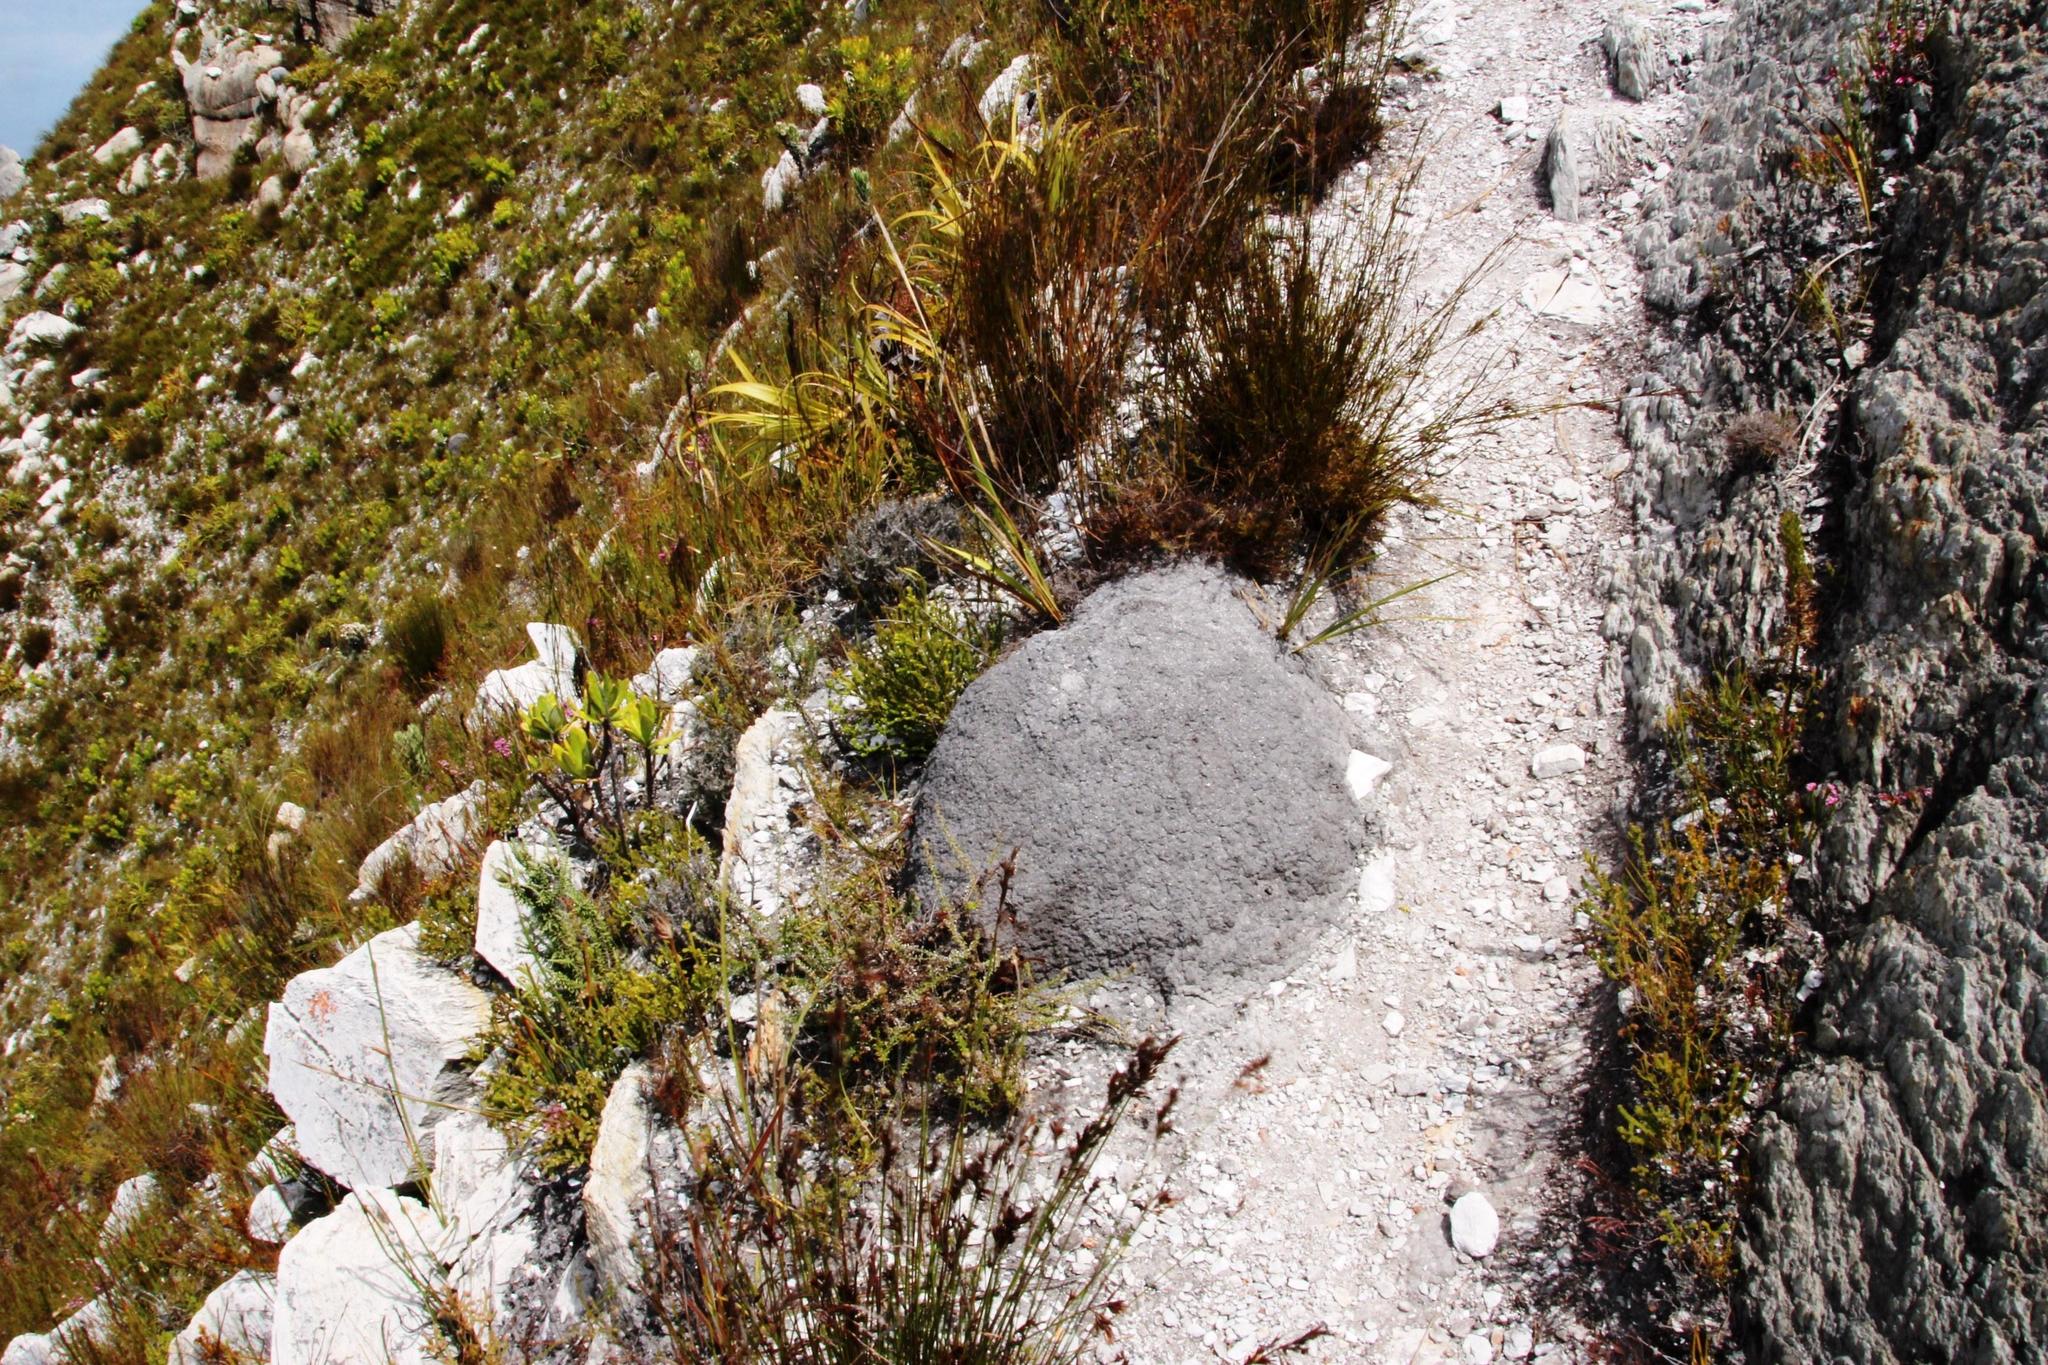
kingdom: Animalia
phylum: Arthropoda
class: Insecta
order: Blattodea
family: Termitidae
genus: Amitermes
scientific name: Amitermes hastatus
